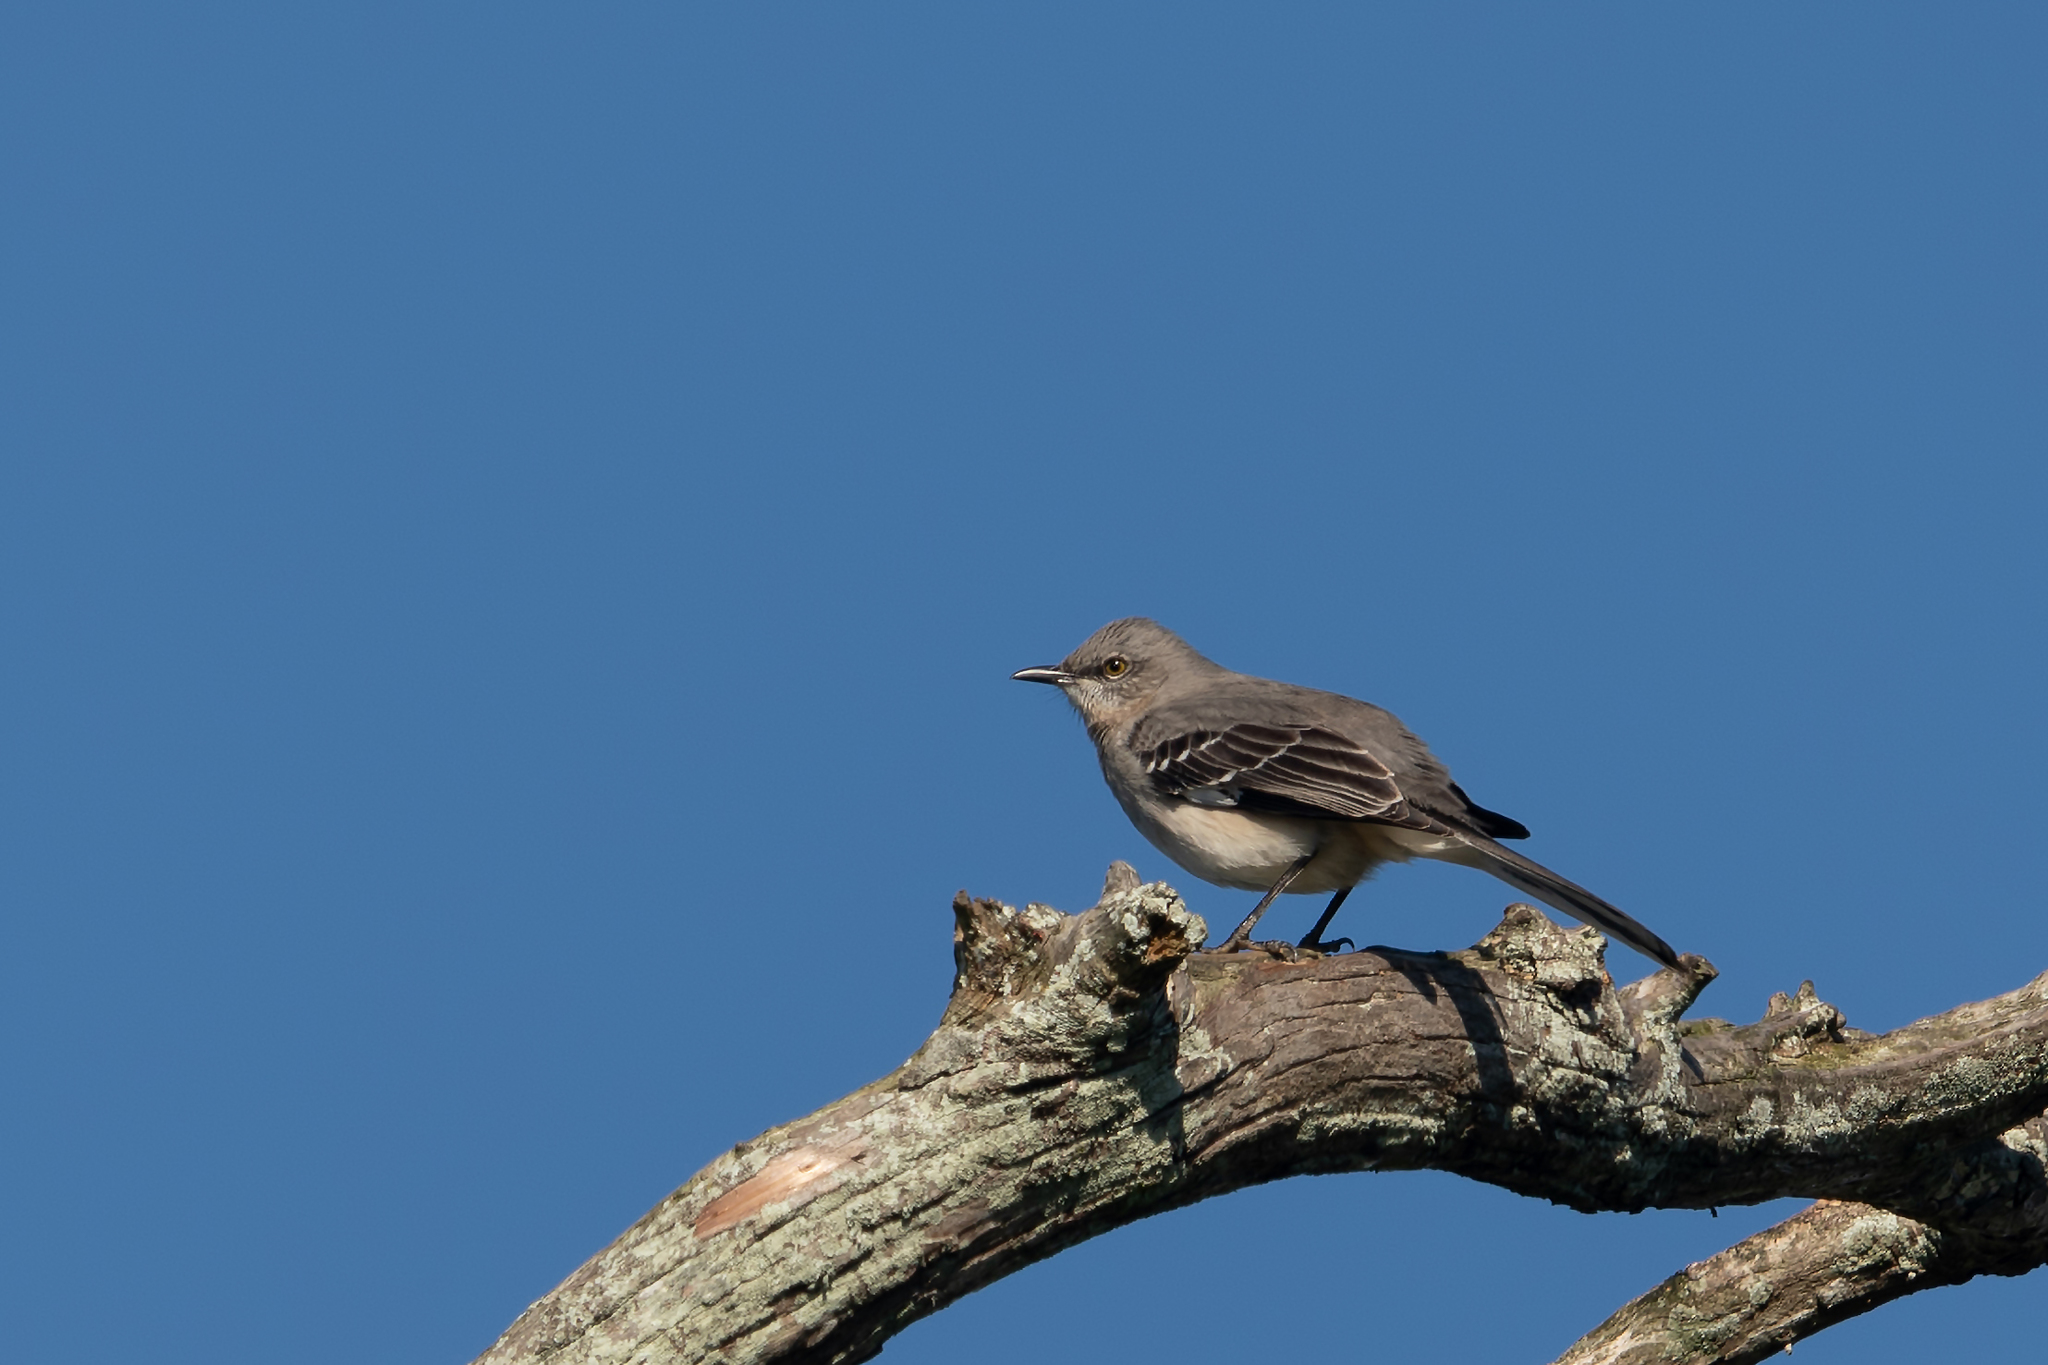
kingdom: Animalia
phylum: Chordata
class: Aves
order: Passeriformes
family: Mimidae
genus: Mimus
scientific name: Mimus polyglottos
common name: Northern mockingbird
